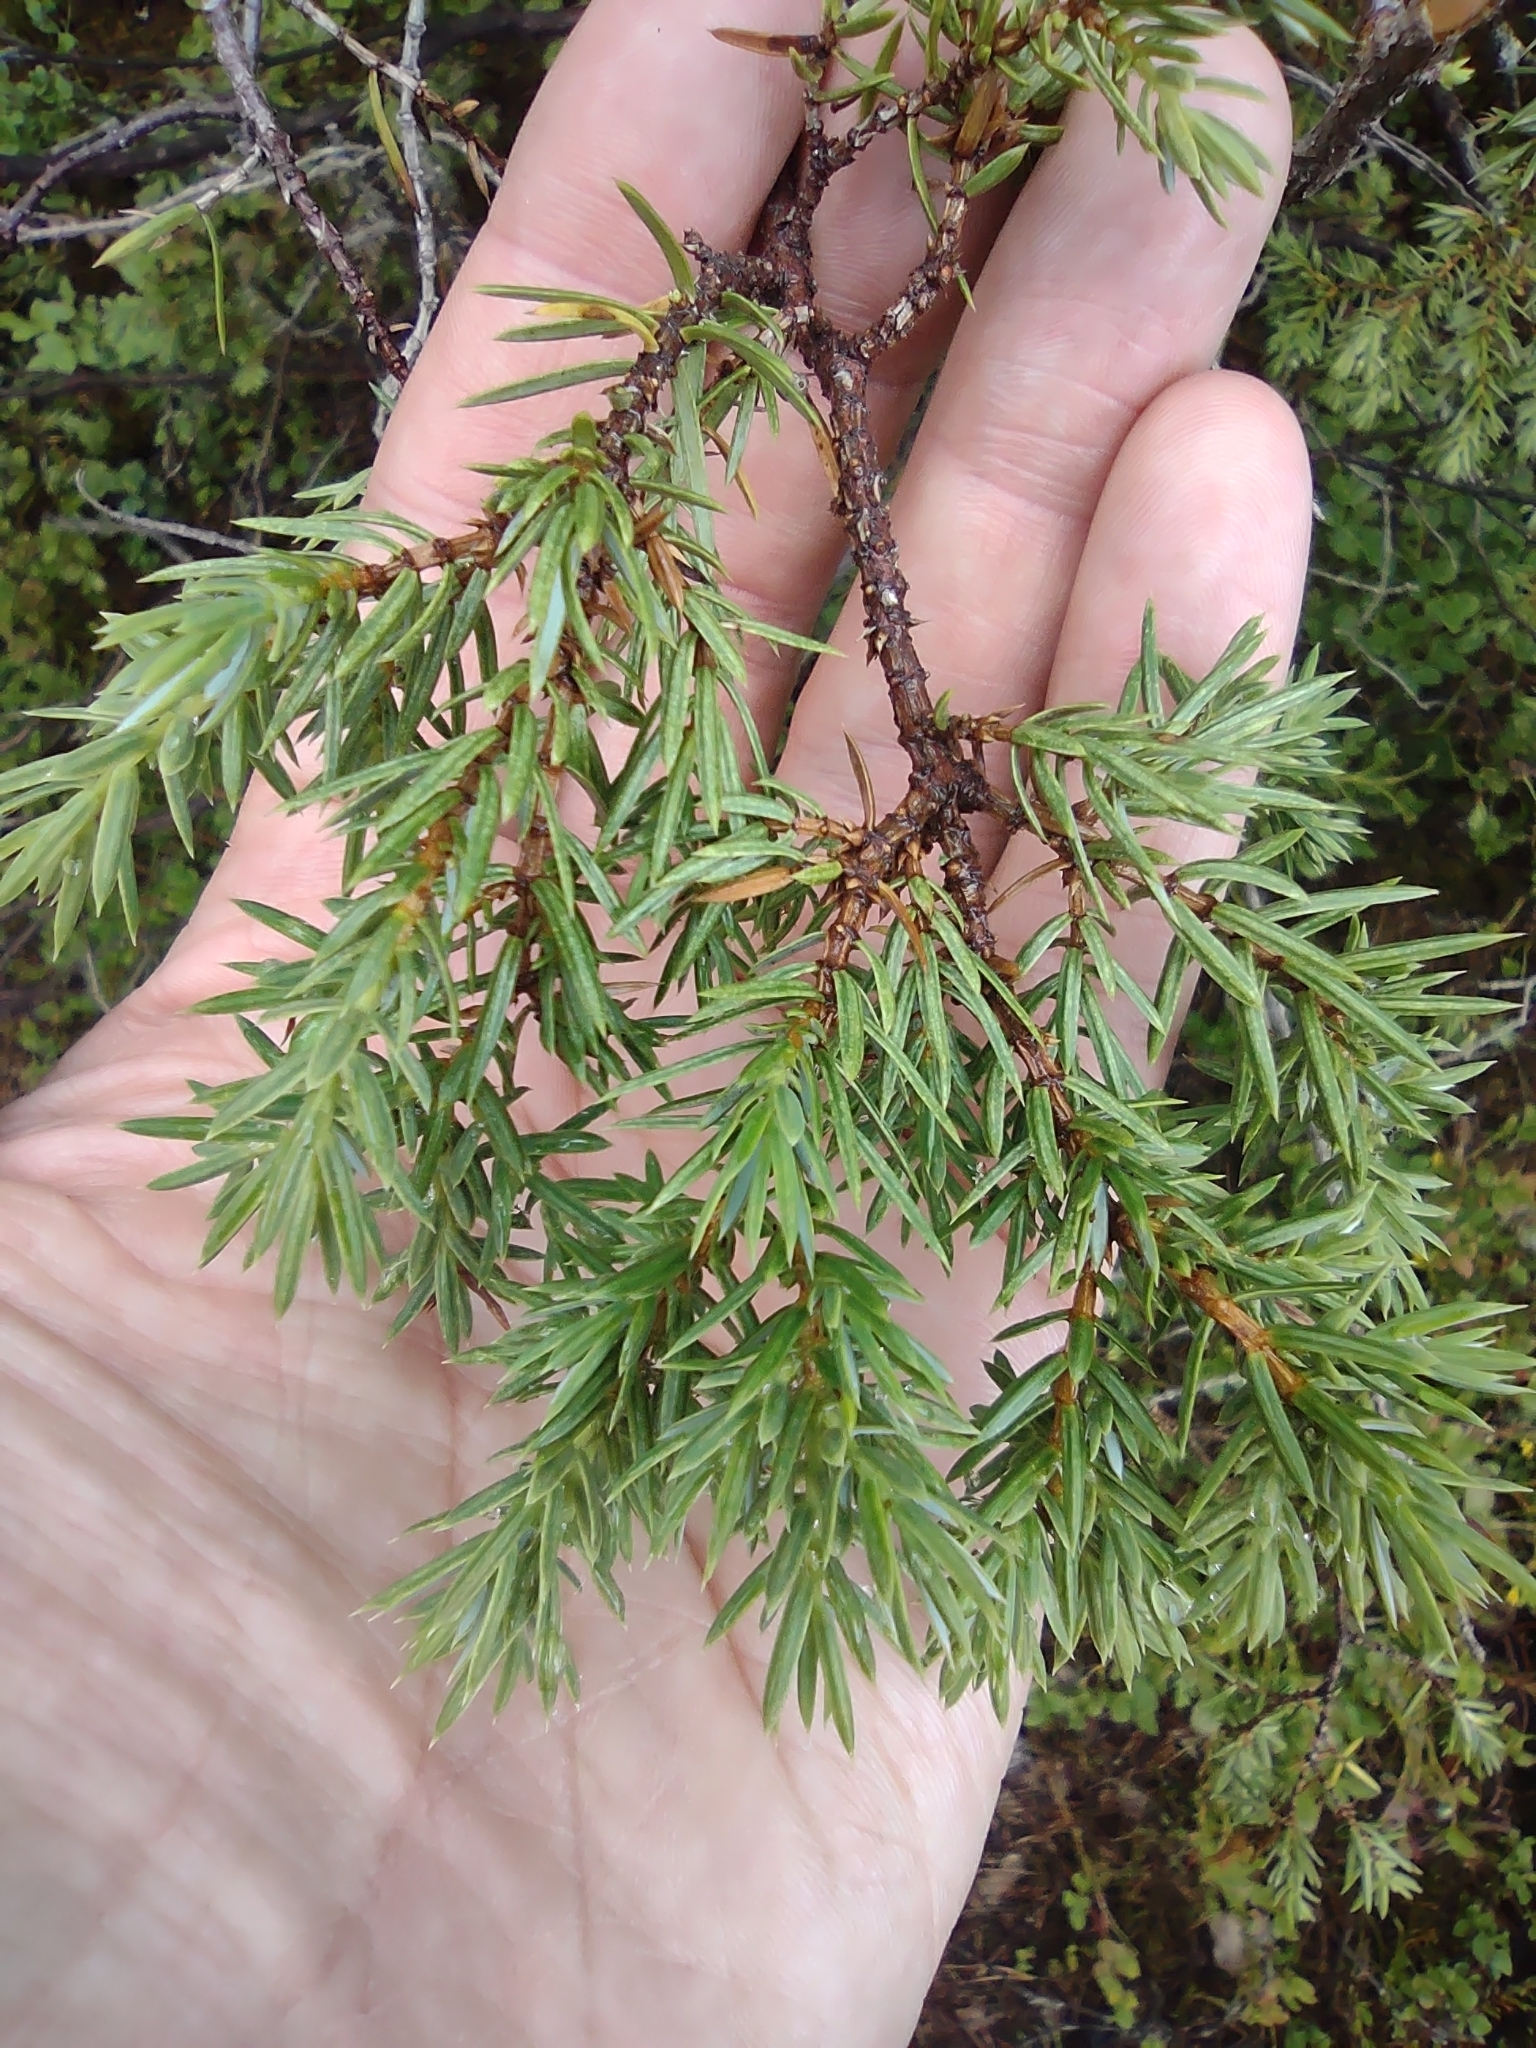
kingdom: Plantae
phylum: Tracheophyta
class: Pinopsida
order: Pinales
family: Cupressaceae
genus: Juniperus
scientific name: Juniperus communis
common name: Common juniper
